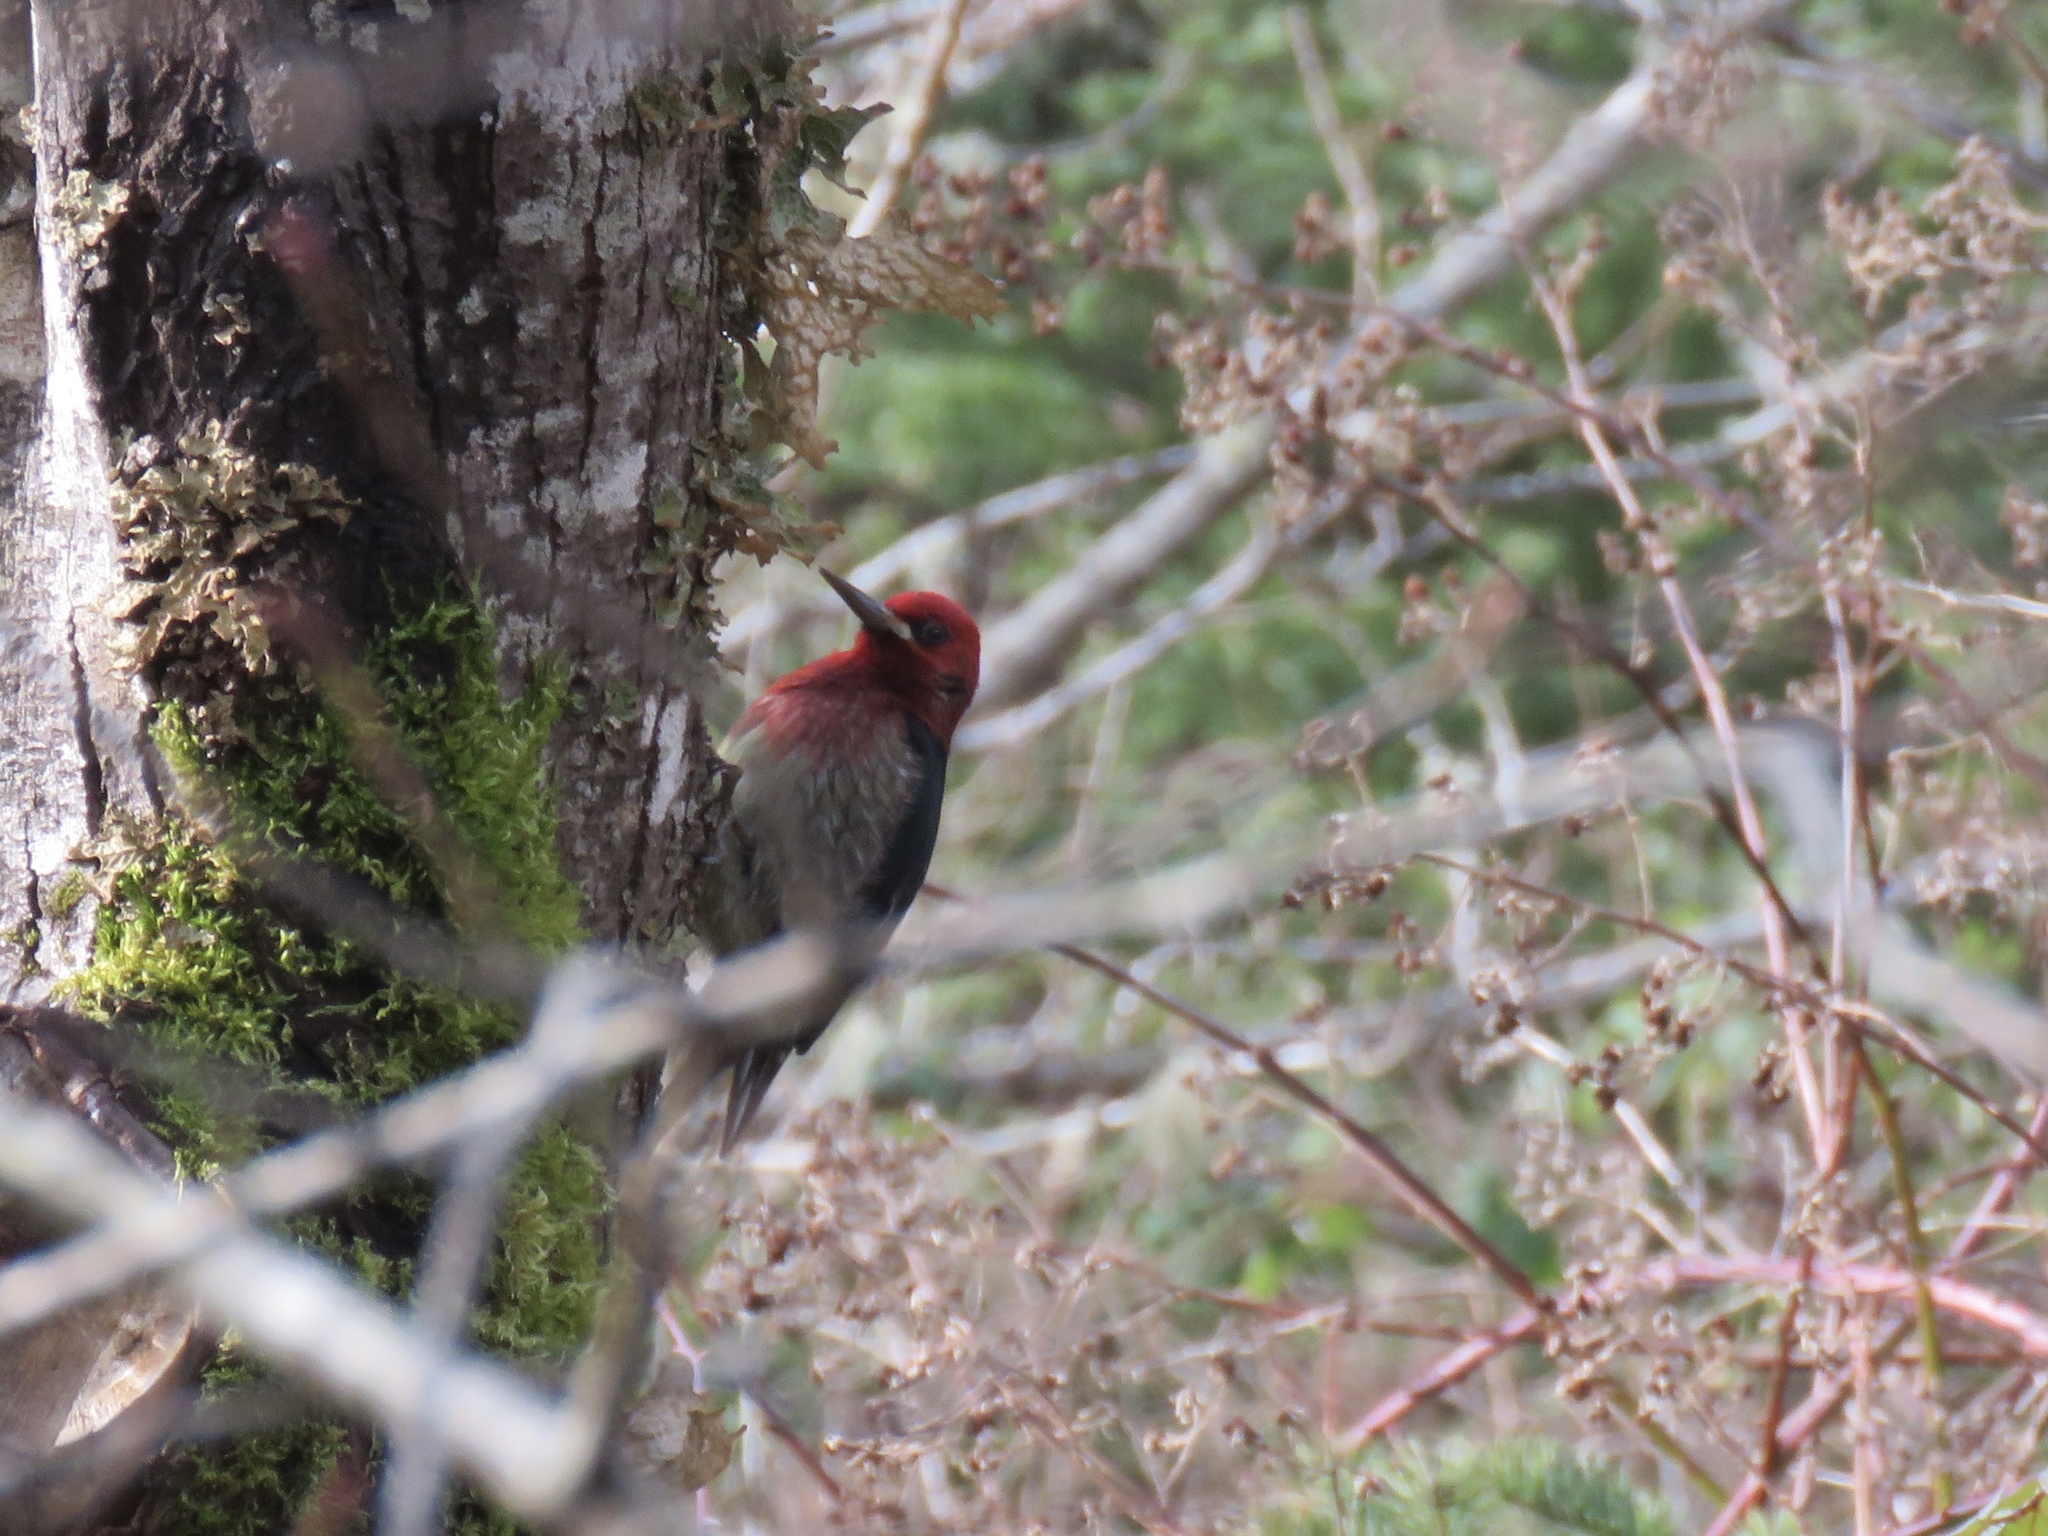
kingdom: Animalia
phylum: Chordata
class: Aves
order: Piciformes
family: Picidae
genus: Sphyrapicus
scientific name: Sphyrapicus ruber
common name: Red-breasted sapsucker
